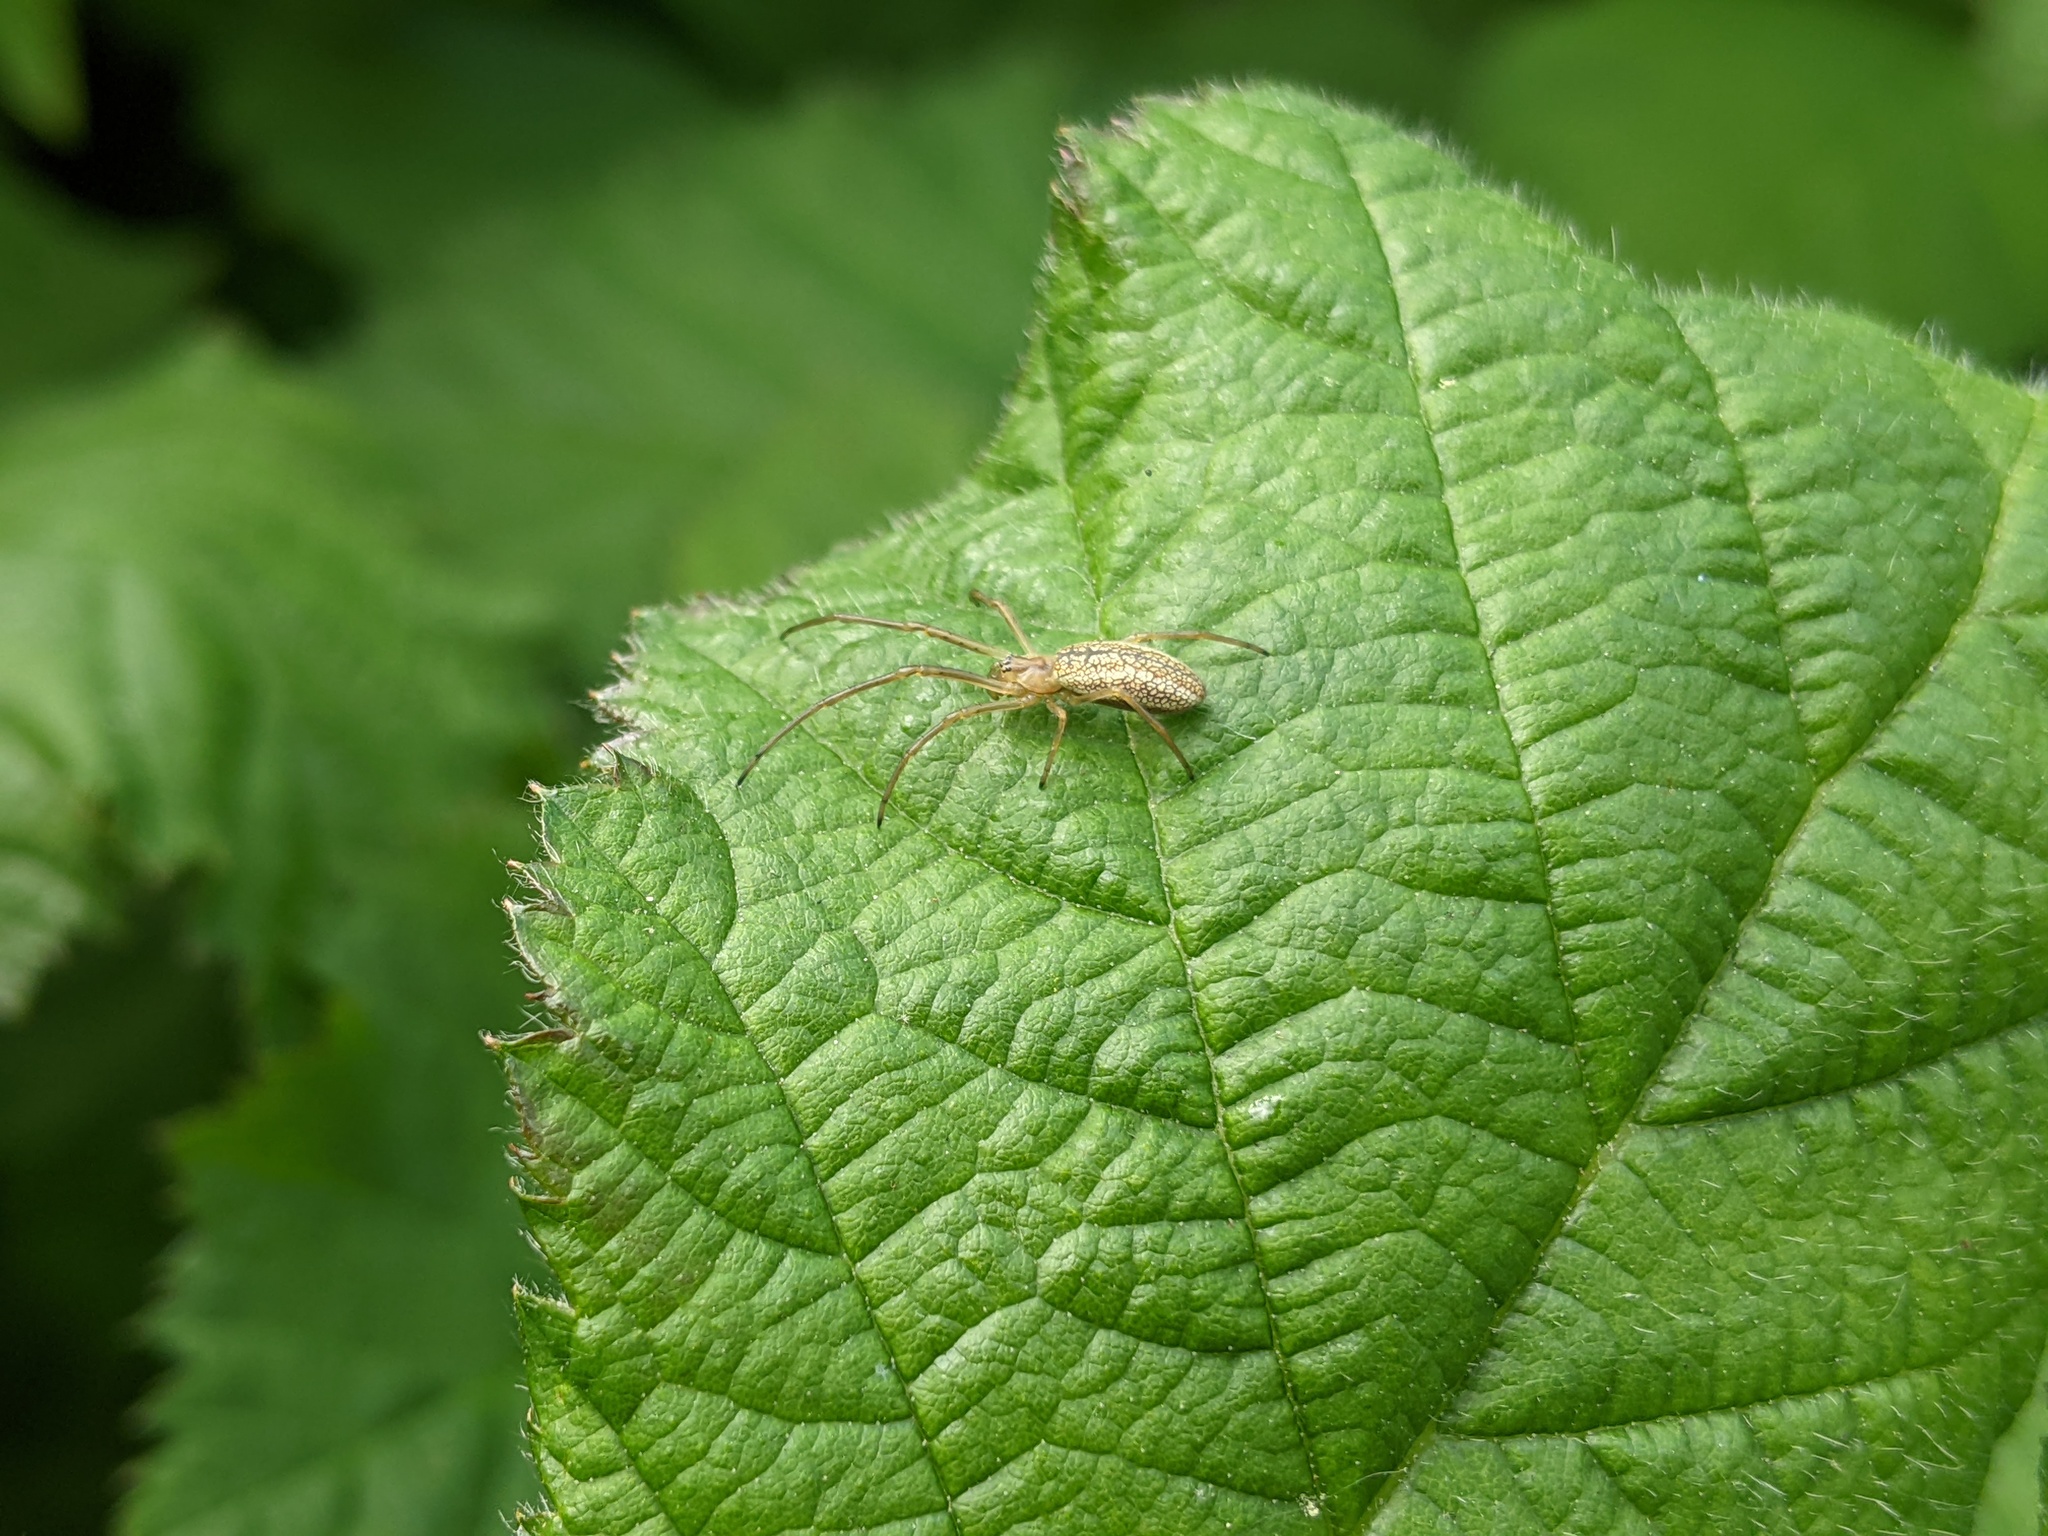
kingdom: Animalia
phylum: Arthropoda
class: Arachnida
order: Araneae
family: Tetragnathidae
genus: Tetragnatha
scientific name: Tetragnatha
